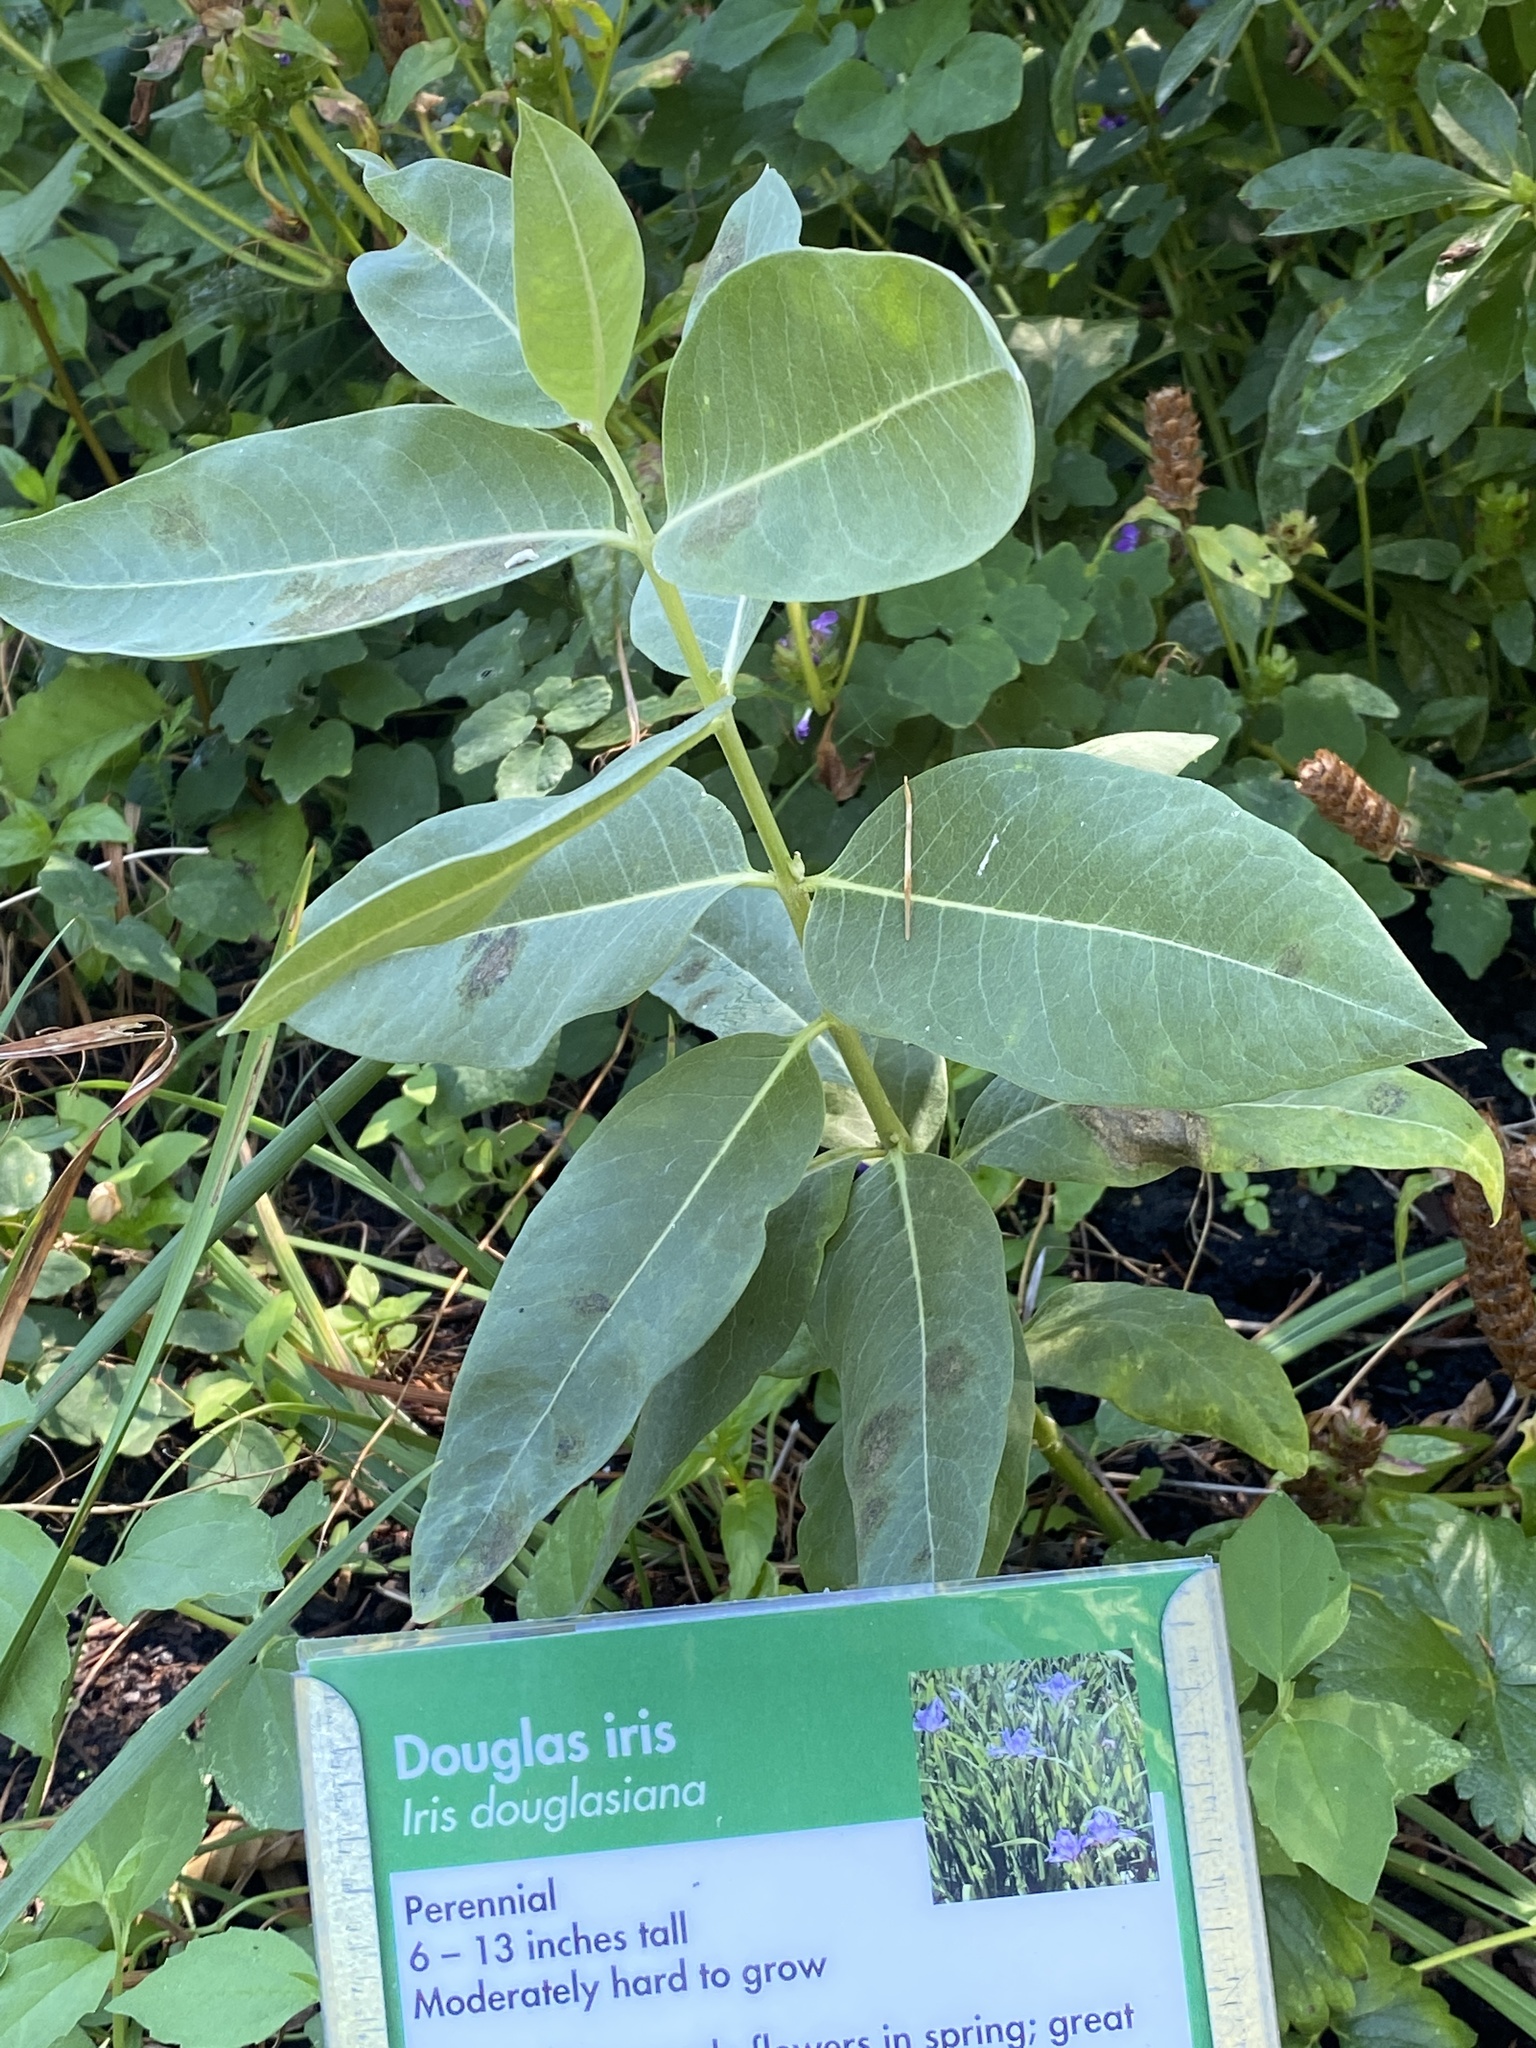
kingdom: Plantae
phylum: Tracheophyta
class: Magnoliopsida
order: Gentianales
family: Apocynaceae
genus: Asclepias
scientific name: Asclepias speciosa
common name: Showy milkweed
